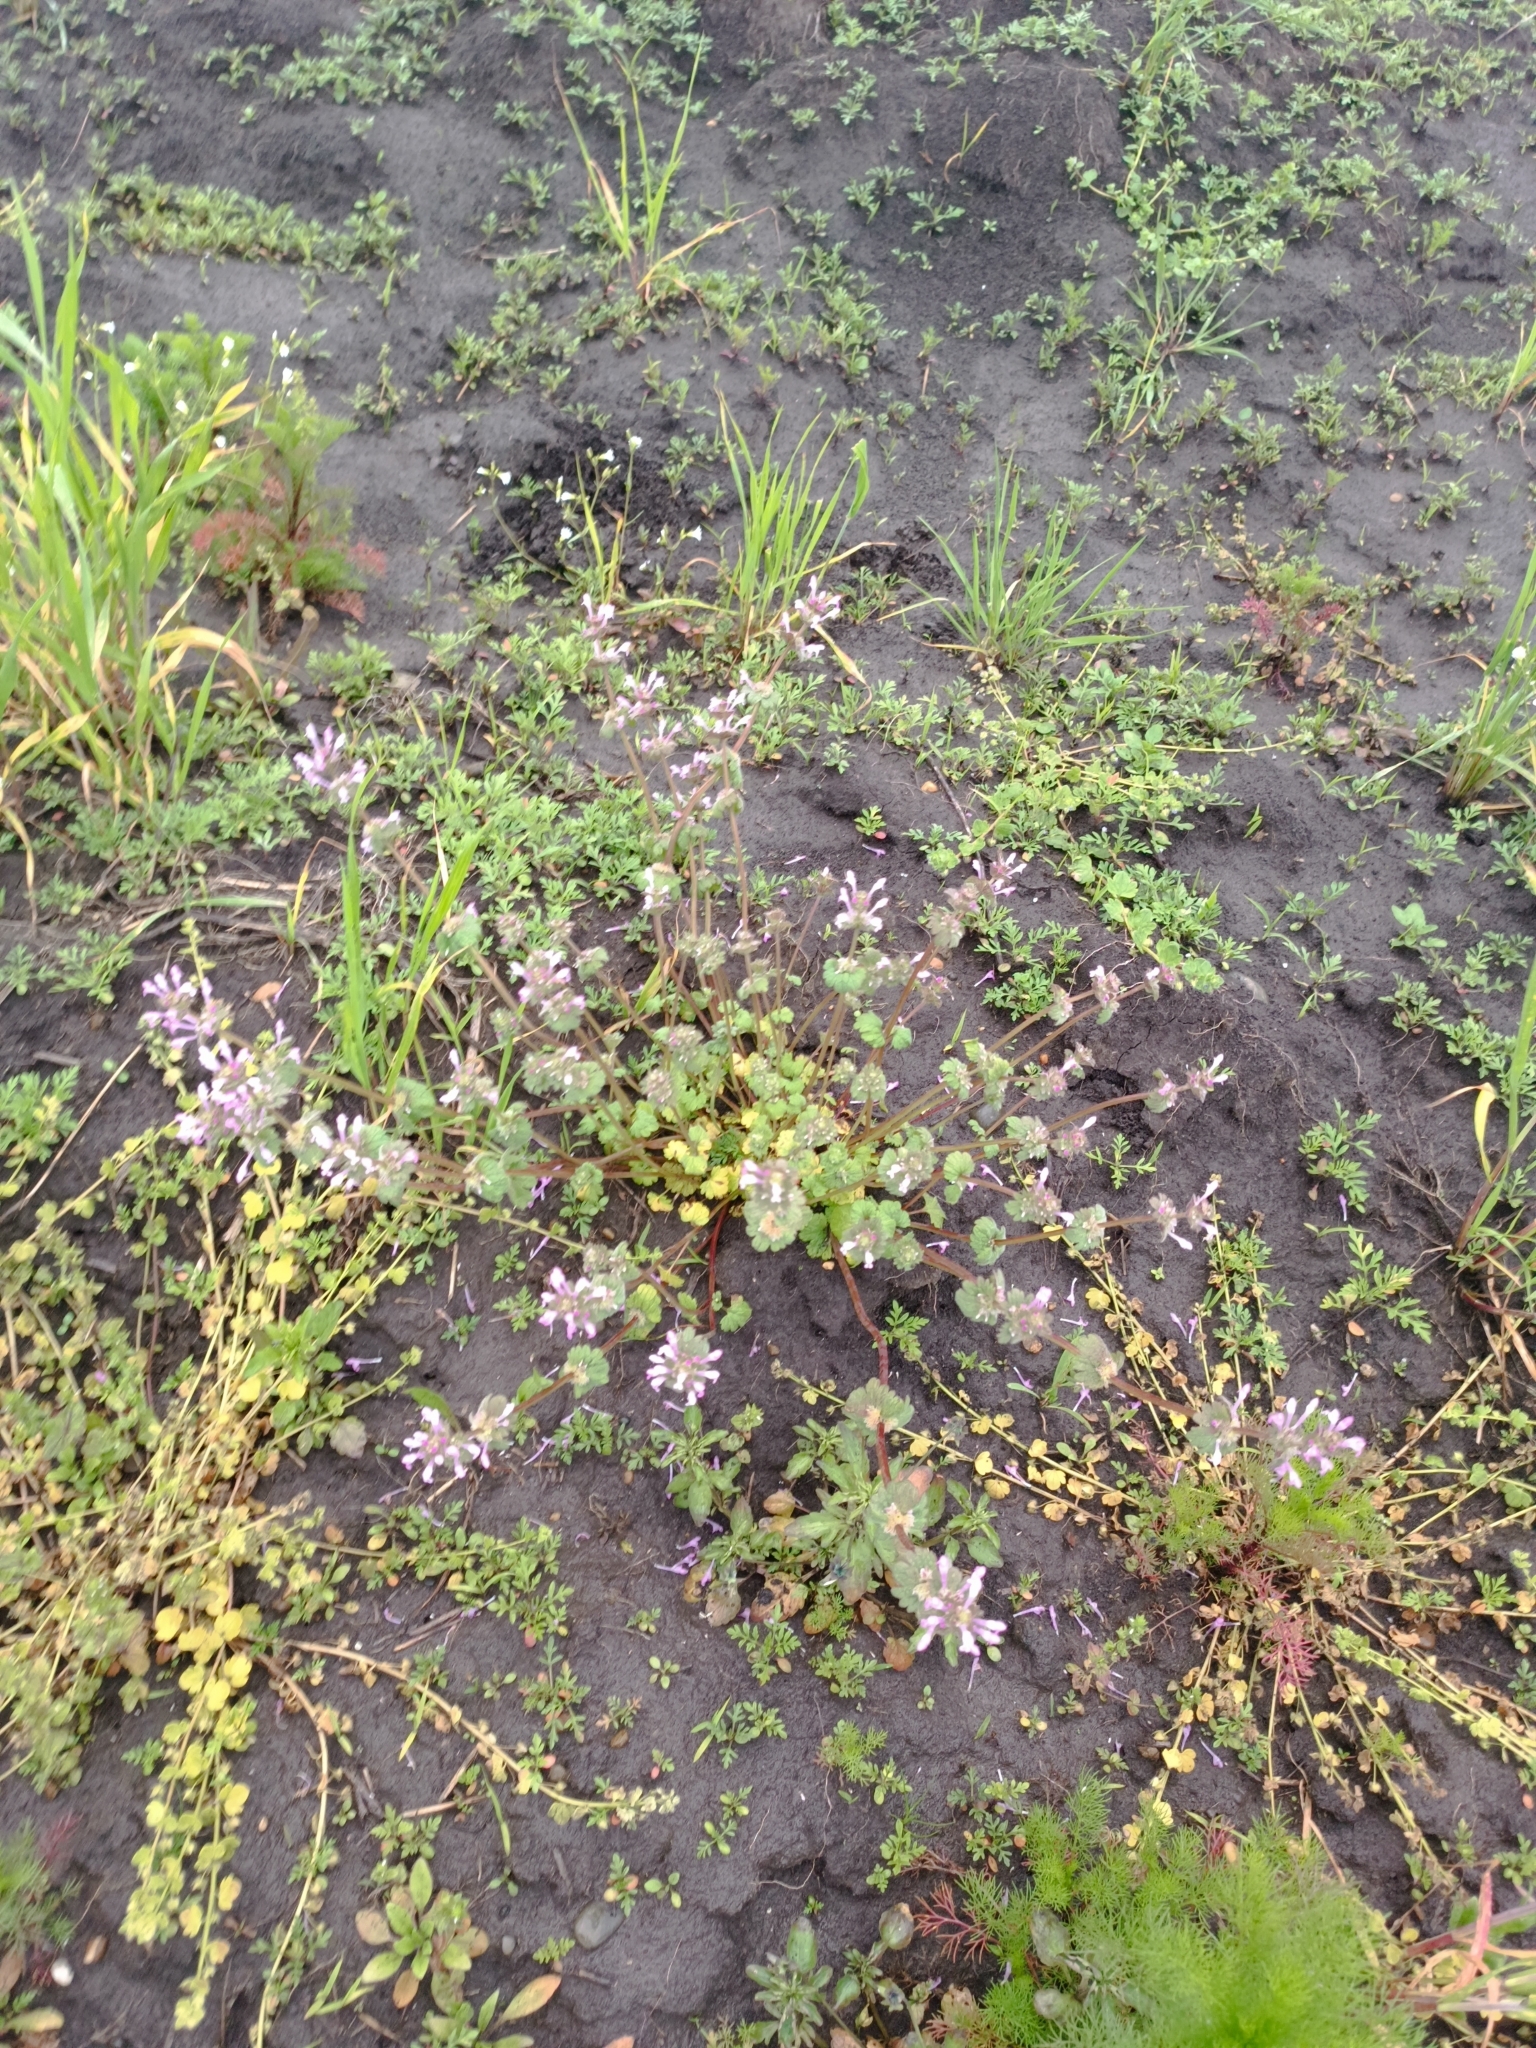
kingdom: Plantae
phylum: Tracheophyta
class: Magnoliopsida
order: Lamiales
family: Lamiaceae
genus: Lamium
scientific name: Lamium amplexicaule
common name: Henbit dead-nettle
